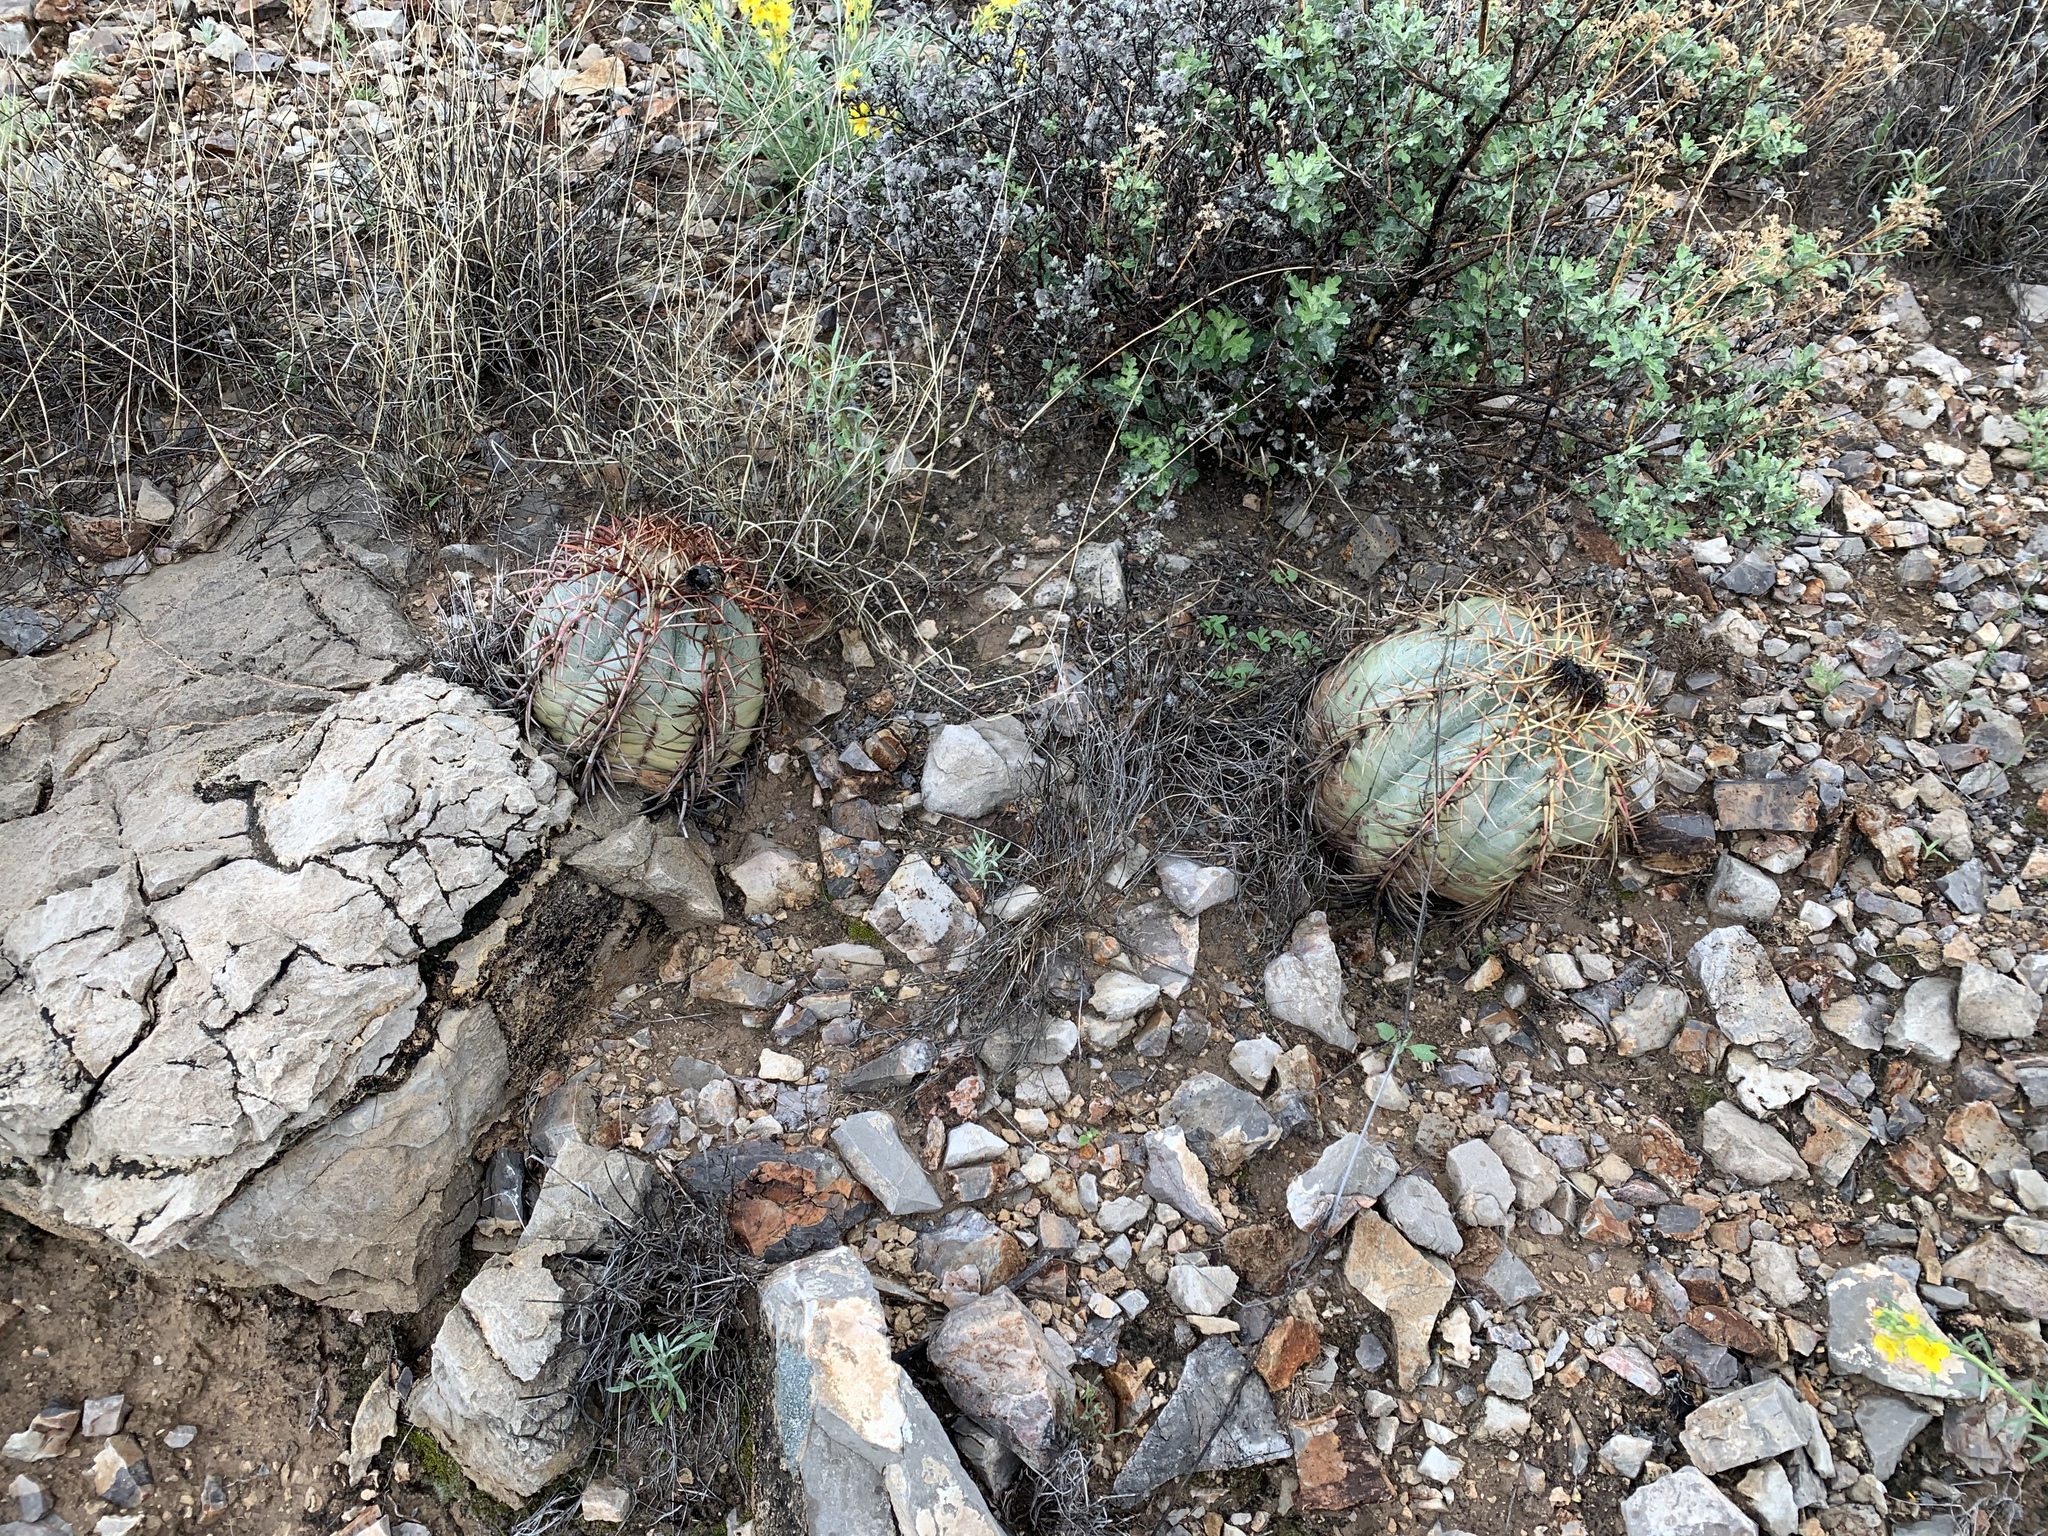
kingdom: Plantae
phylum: Tracheophyta
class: Magnoliopsida
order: Caryophyllales
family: Cactaceae
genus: Echinocactus
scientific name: Echinocactus horizonthalonius
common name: Devilshead
